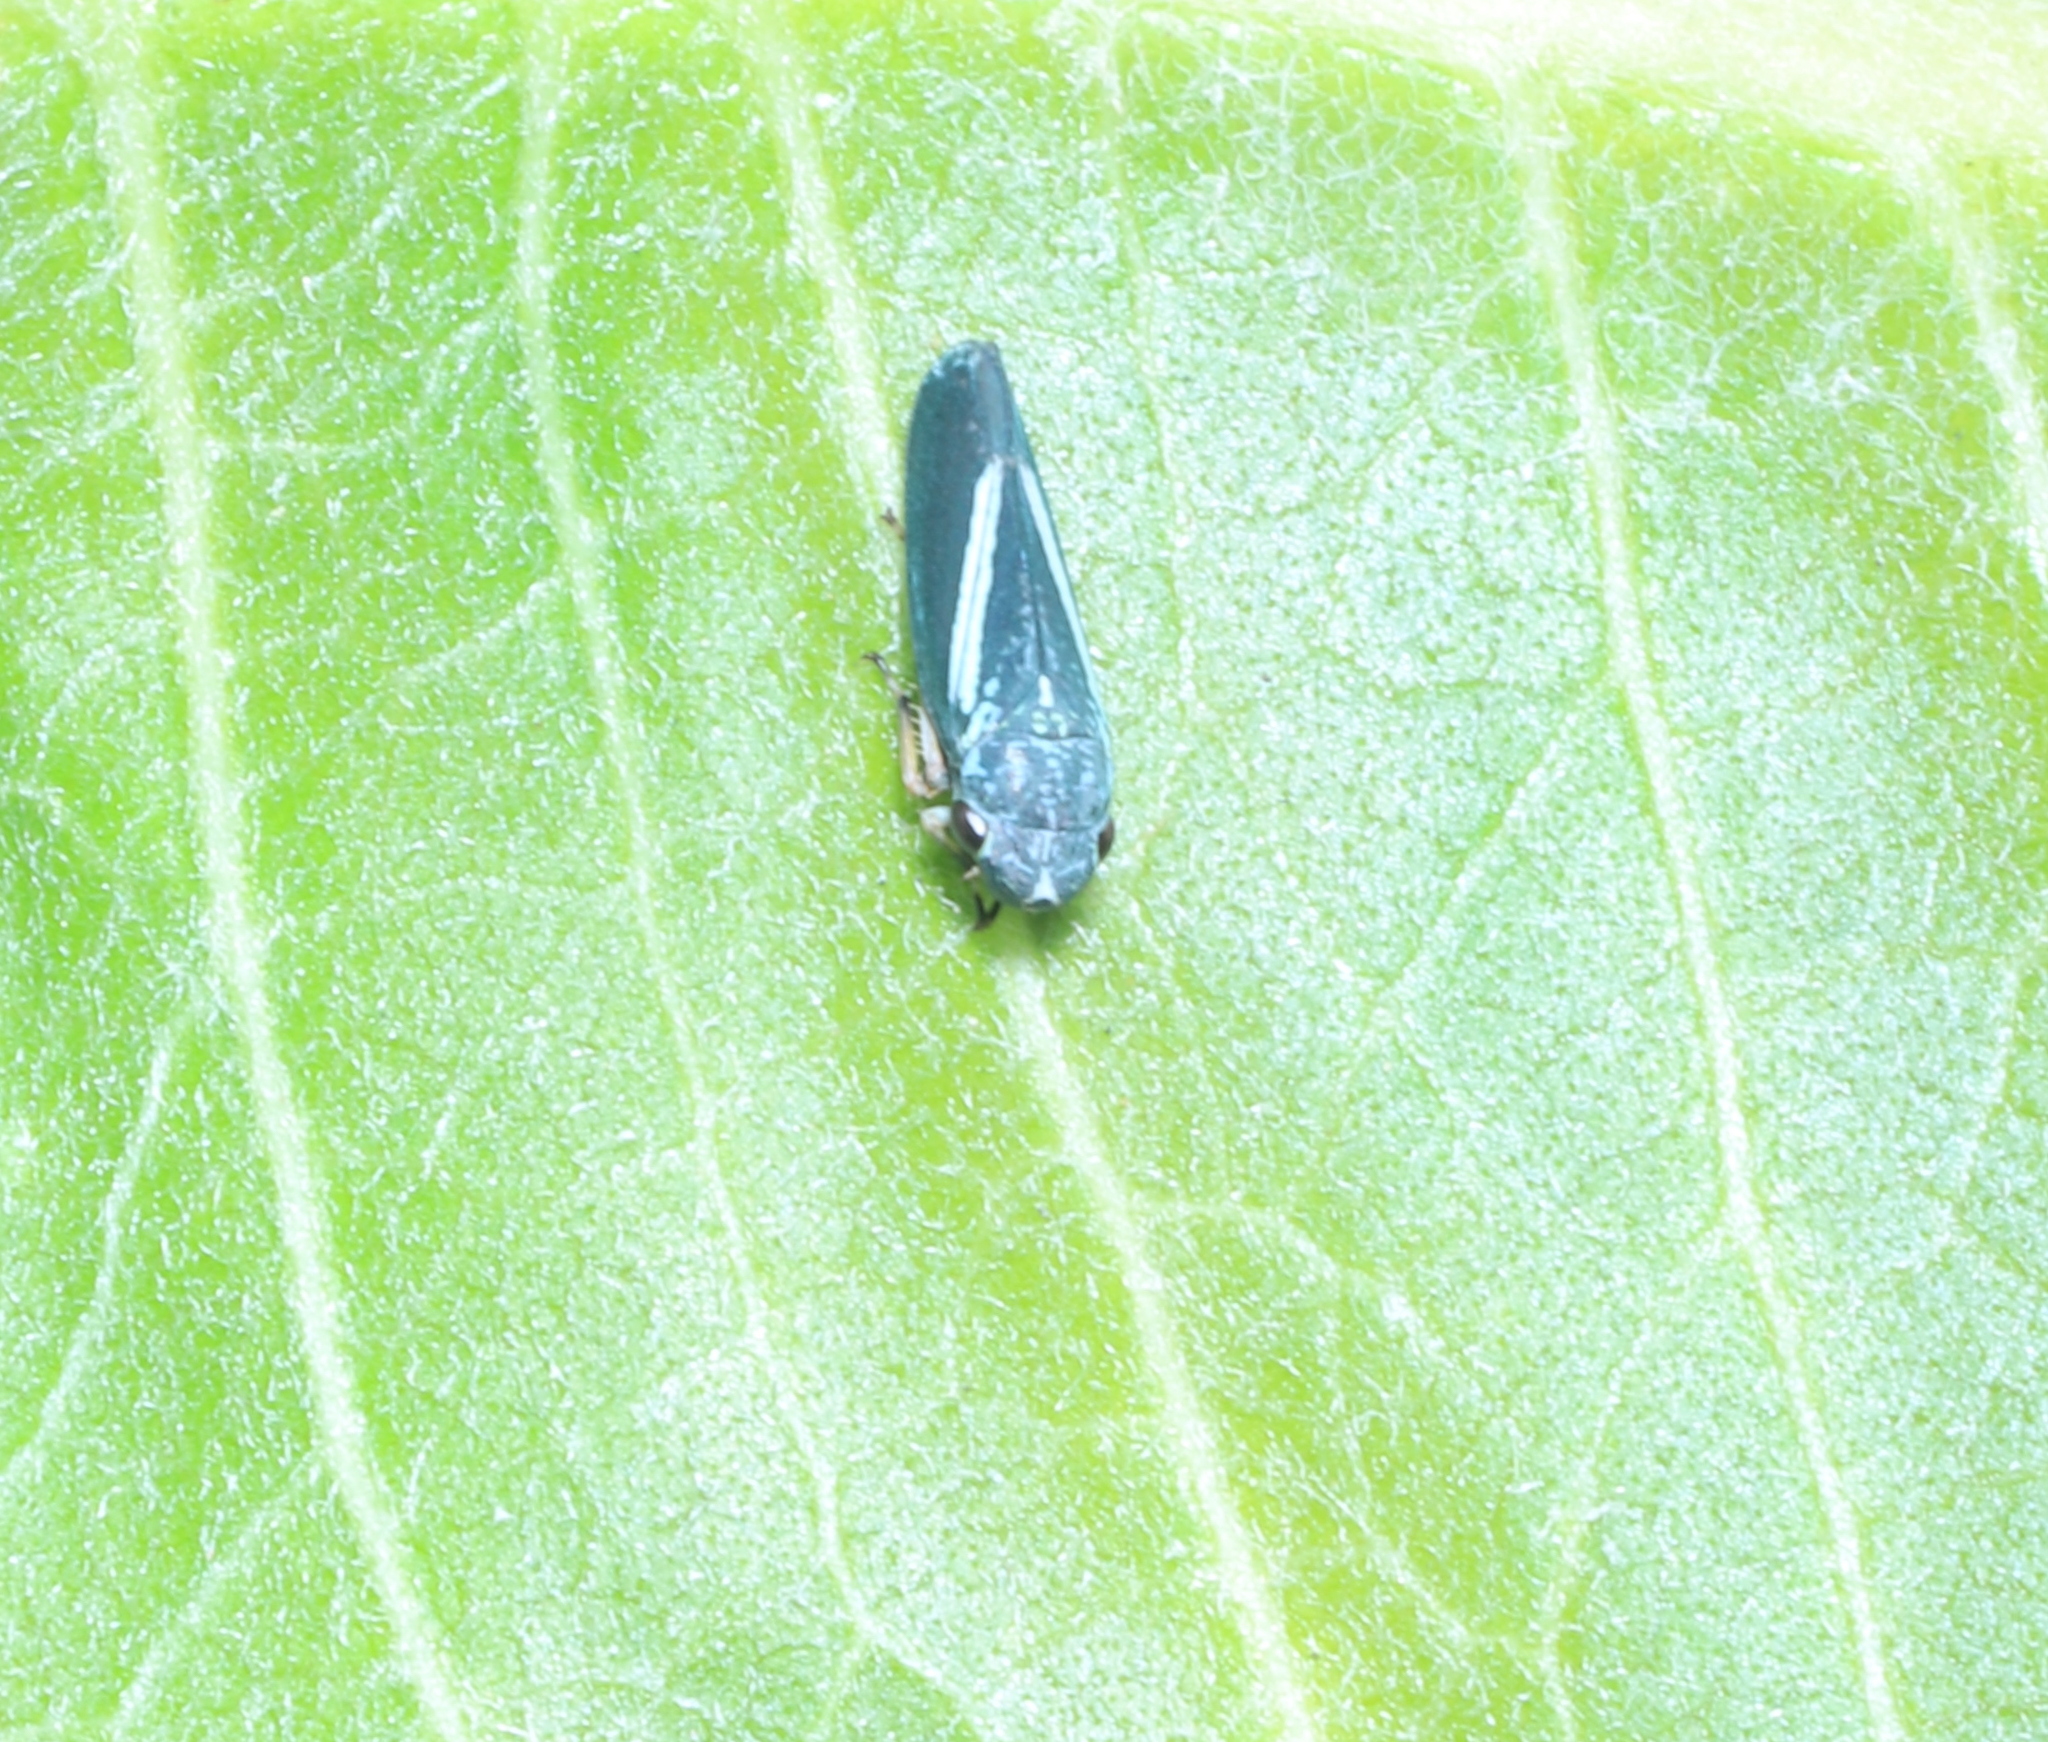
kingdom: Animalia
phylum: Arthropoda
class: Insecta
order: Hemiptera
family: Cicadellidae
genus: Graphocephala
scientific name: Graphocephala lugubris
